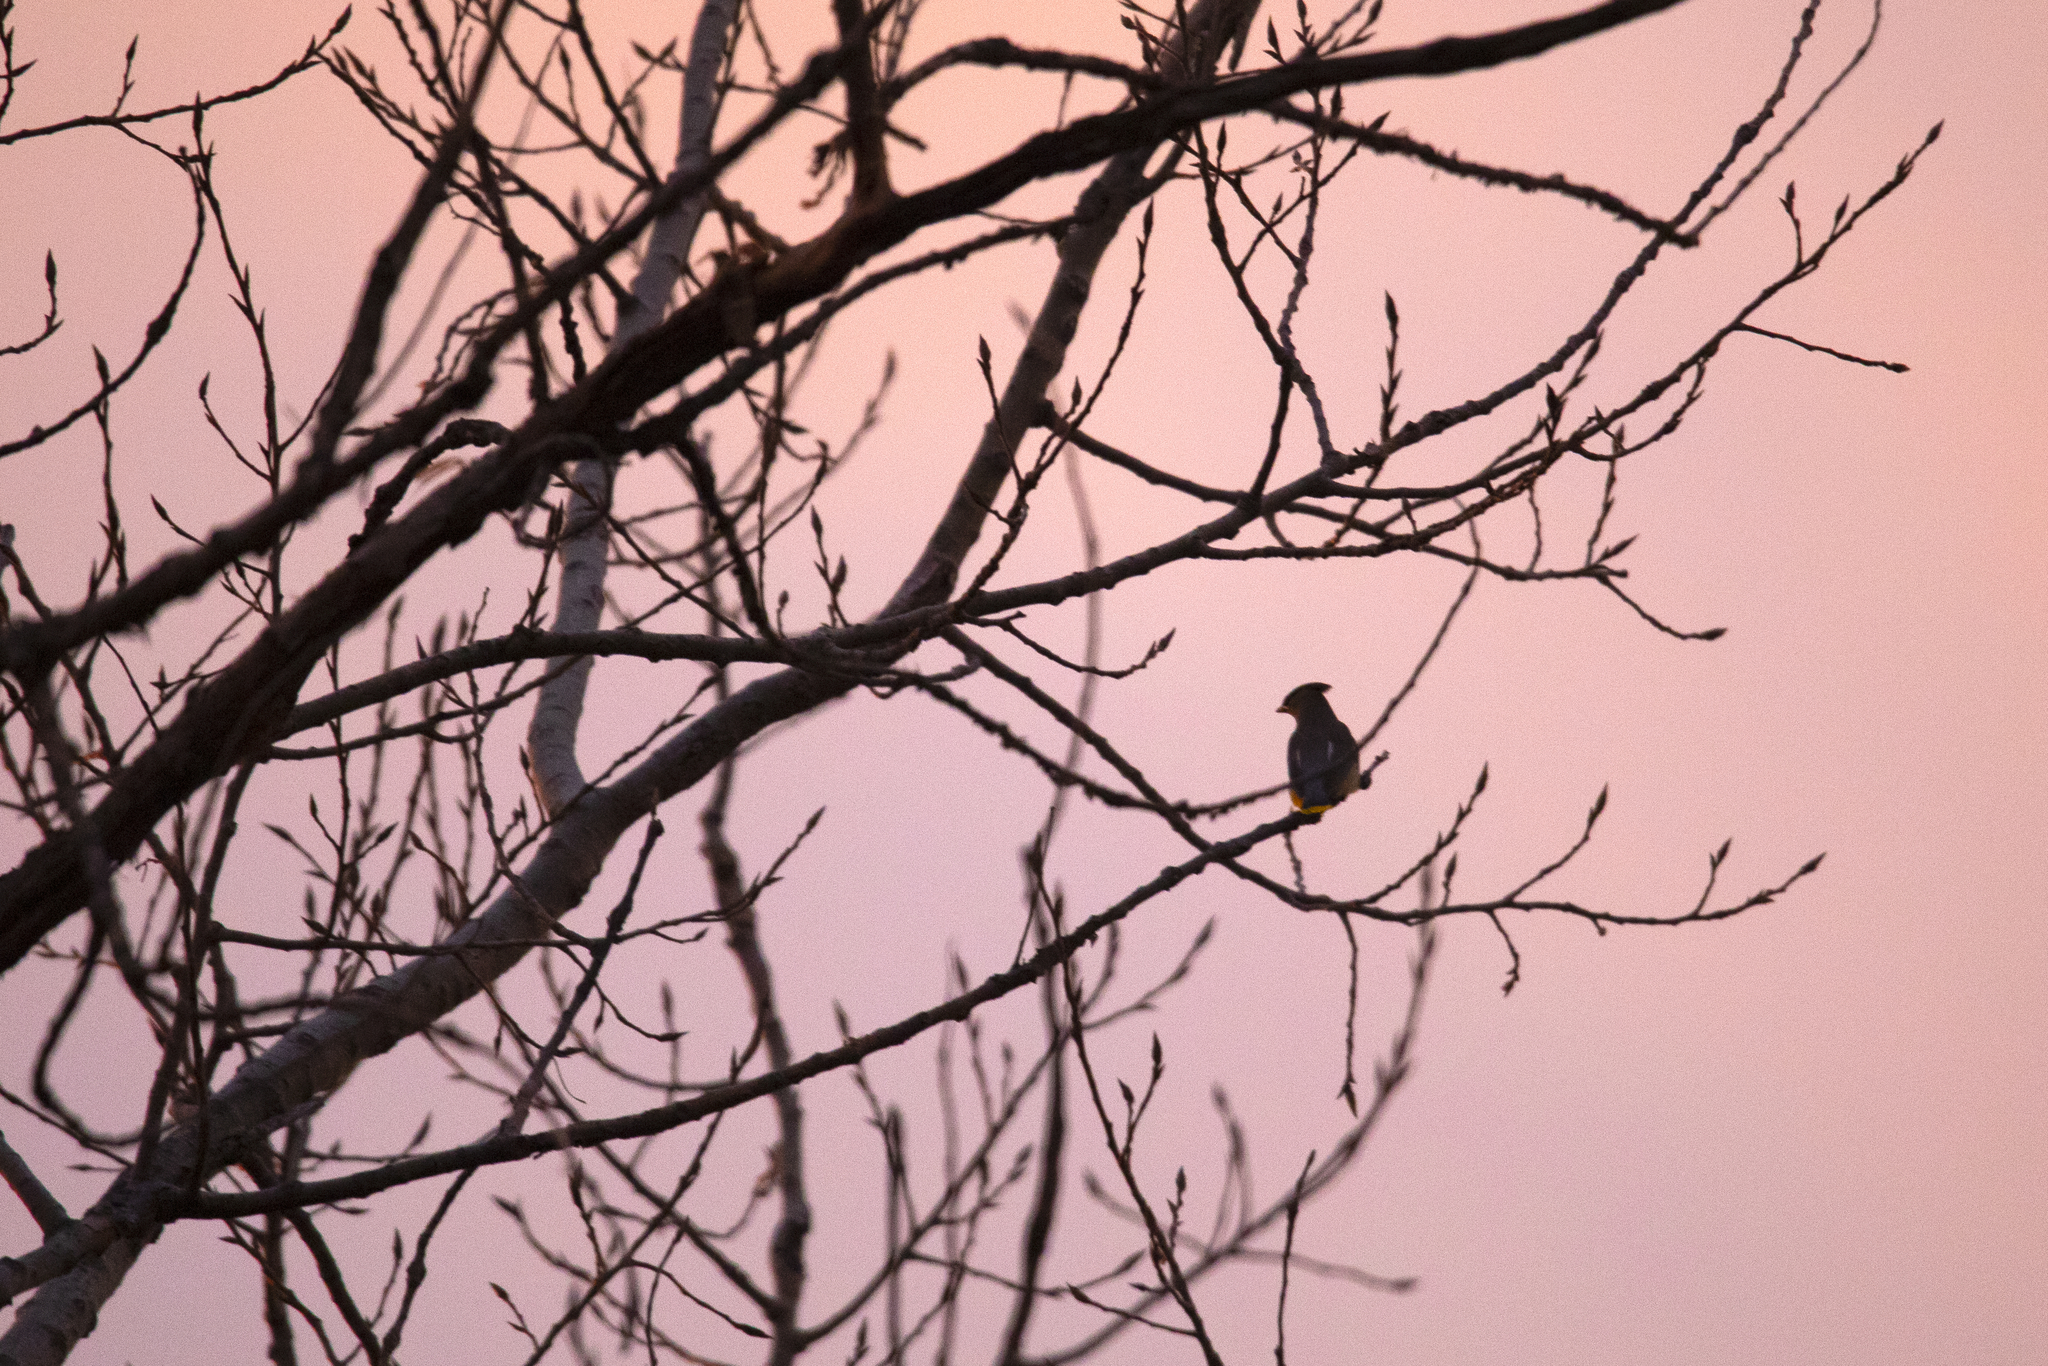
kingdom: Animalia
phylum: Chordata
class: Aves
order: Passeriformes
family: Bombycillidae
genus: Bombycilla
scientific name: Bombycilla cedrorum
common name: Cedar waxwing
